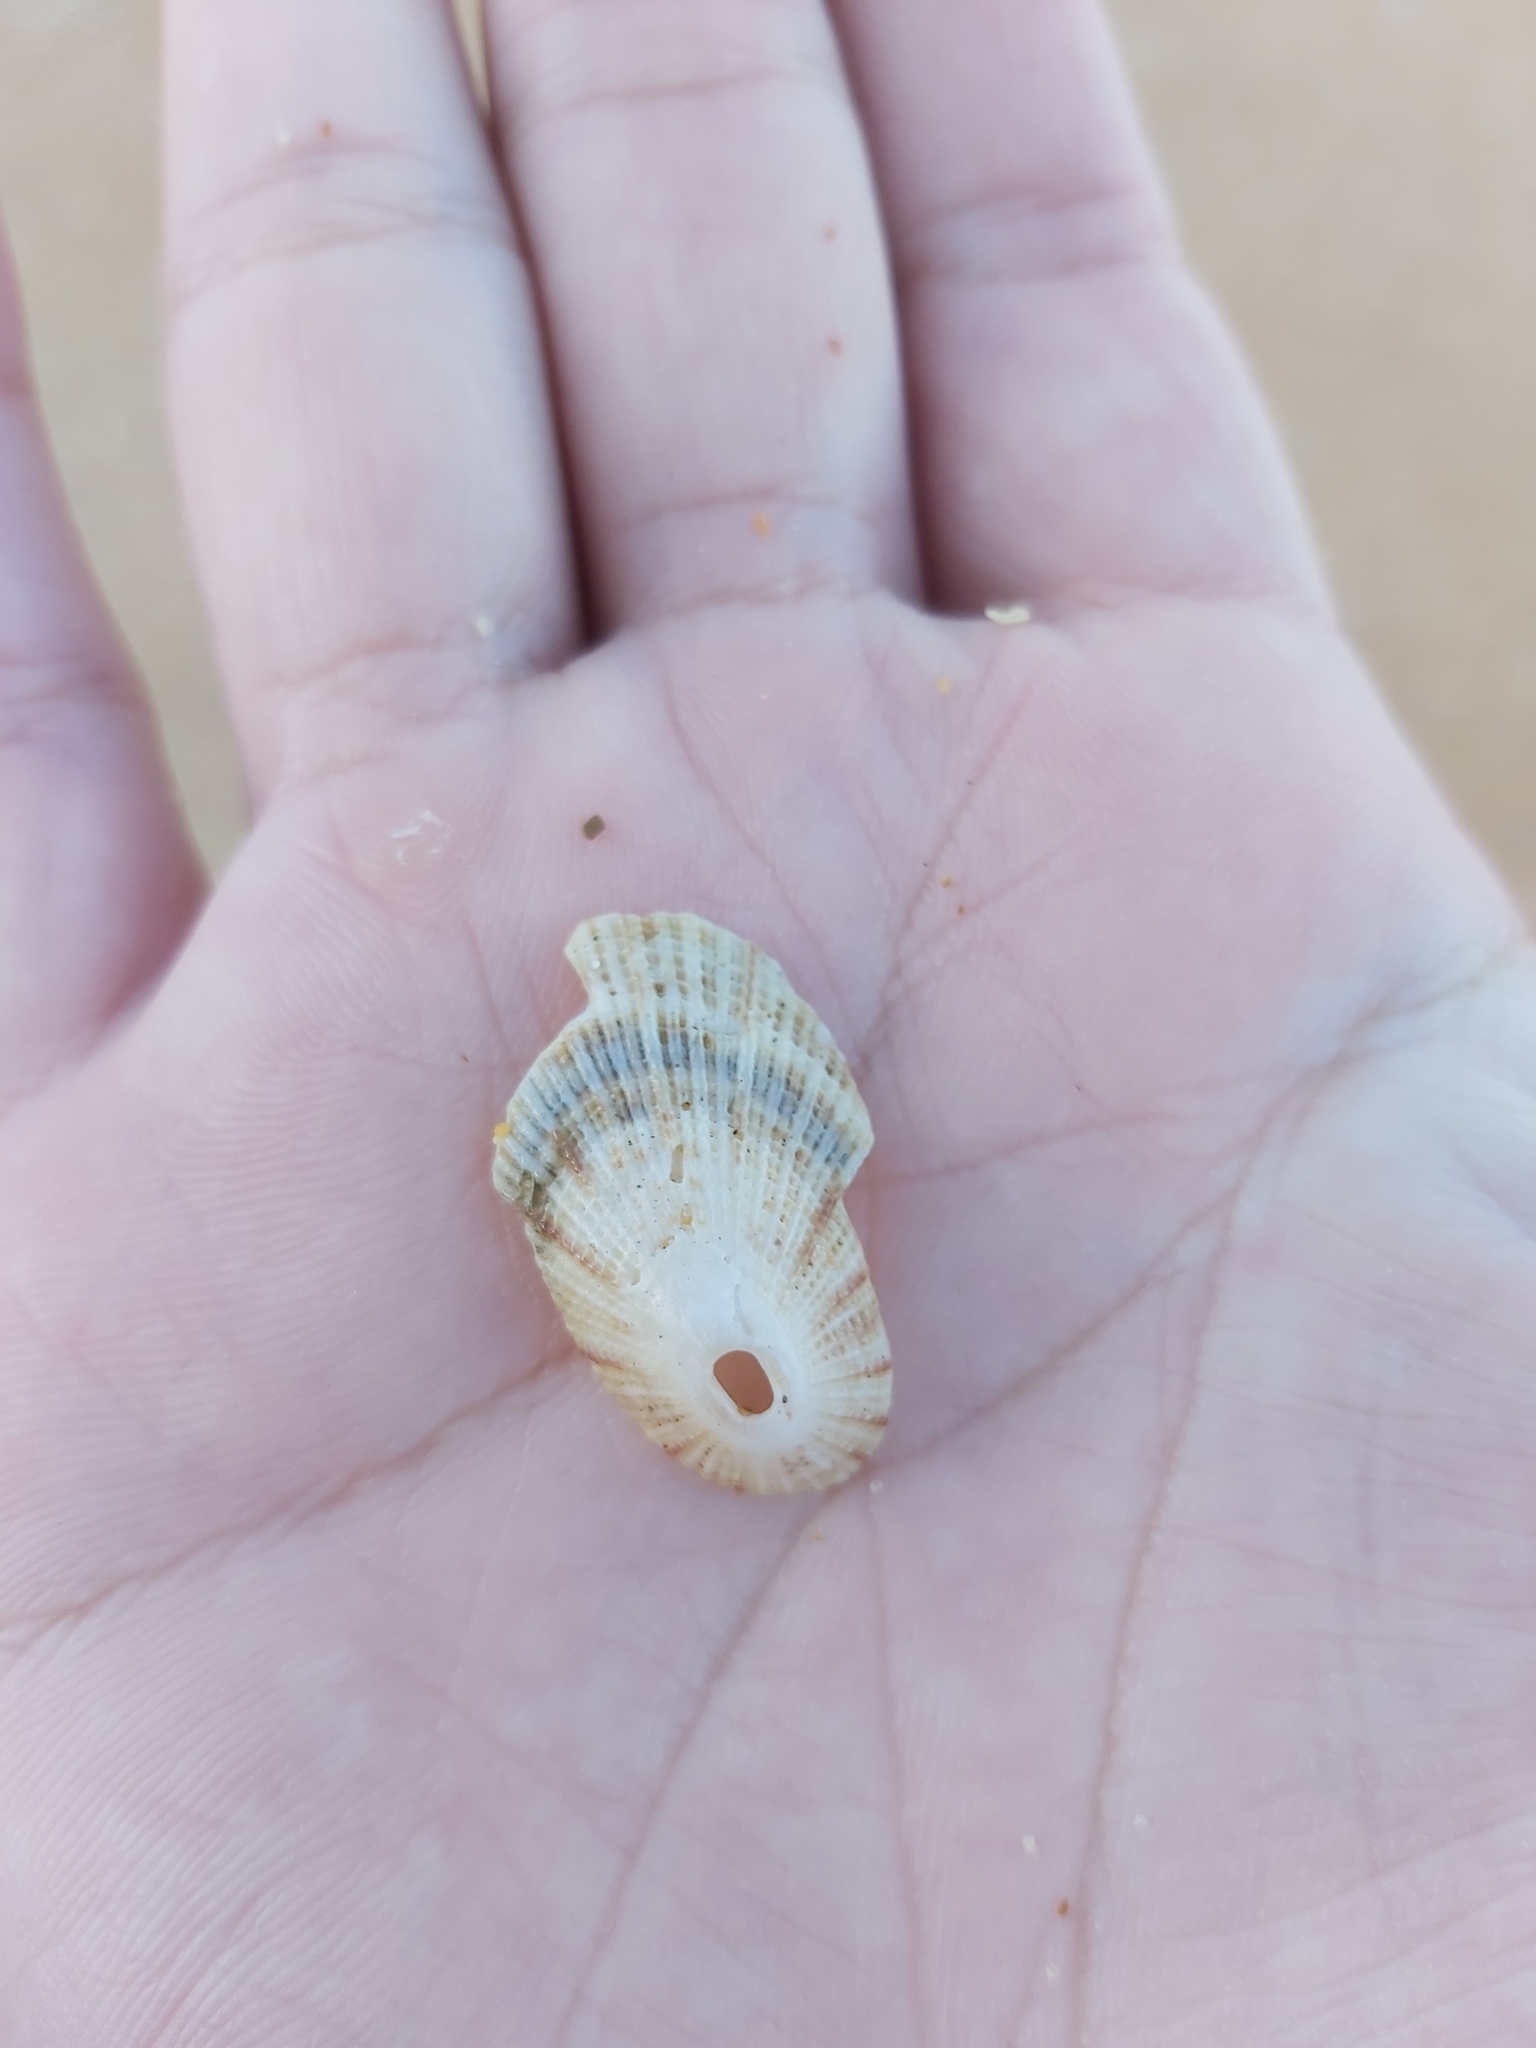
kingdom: Animalia
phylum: Mollusca
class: Gastropoda
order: Lepetellida
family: Fissurellidae
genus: Diodora
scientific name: Diodora lineata
